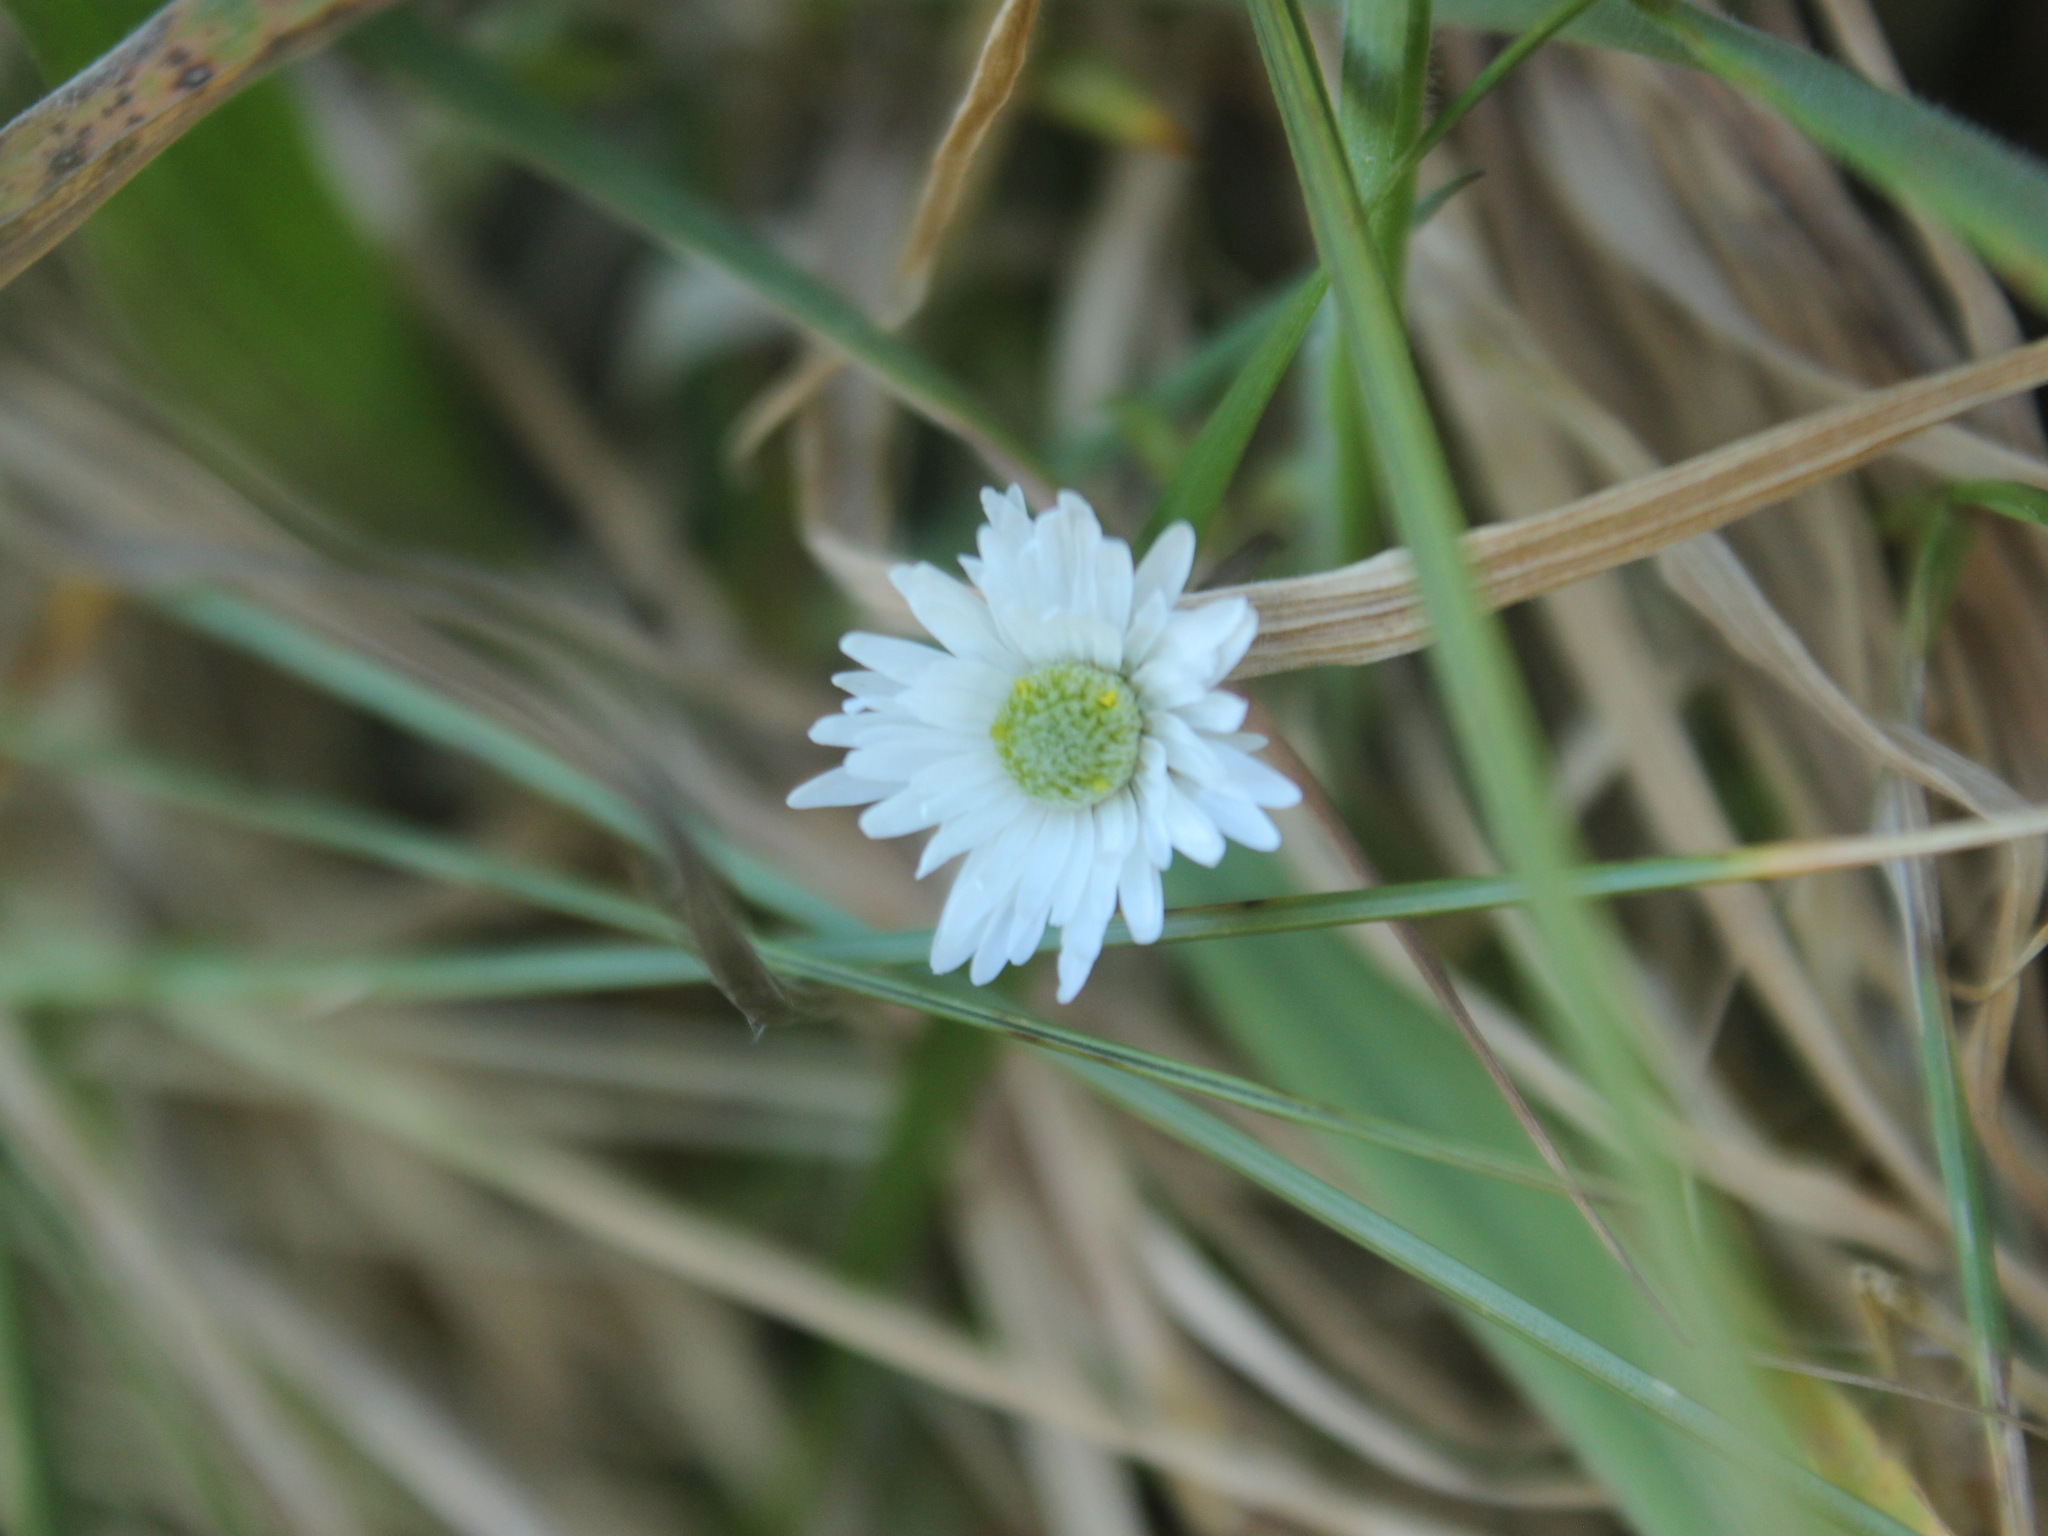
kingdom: Plantae
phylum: Tracheophyta
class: Magnoliopsida
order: Asterales
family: Asteraceae
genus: Anaphalioides
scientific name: Anaphalioides bellidioides
